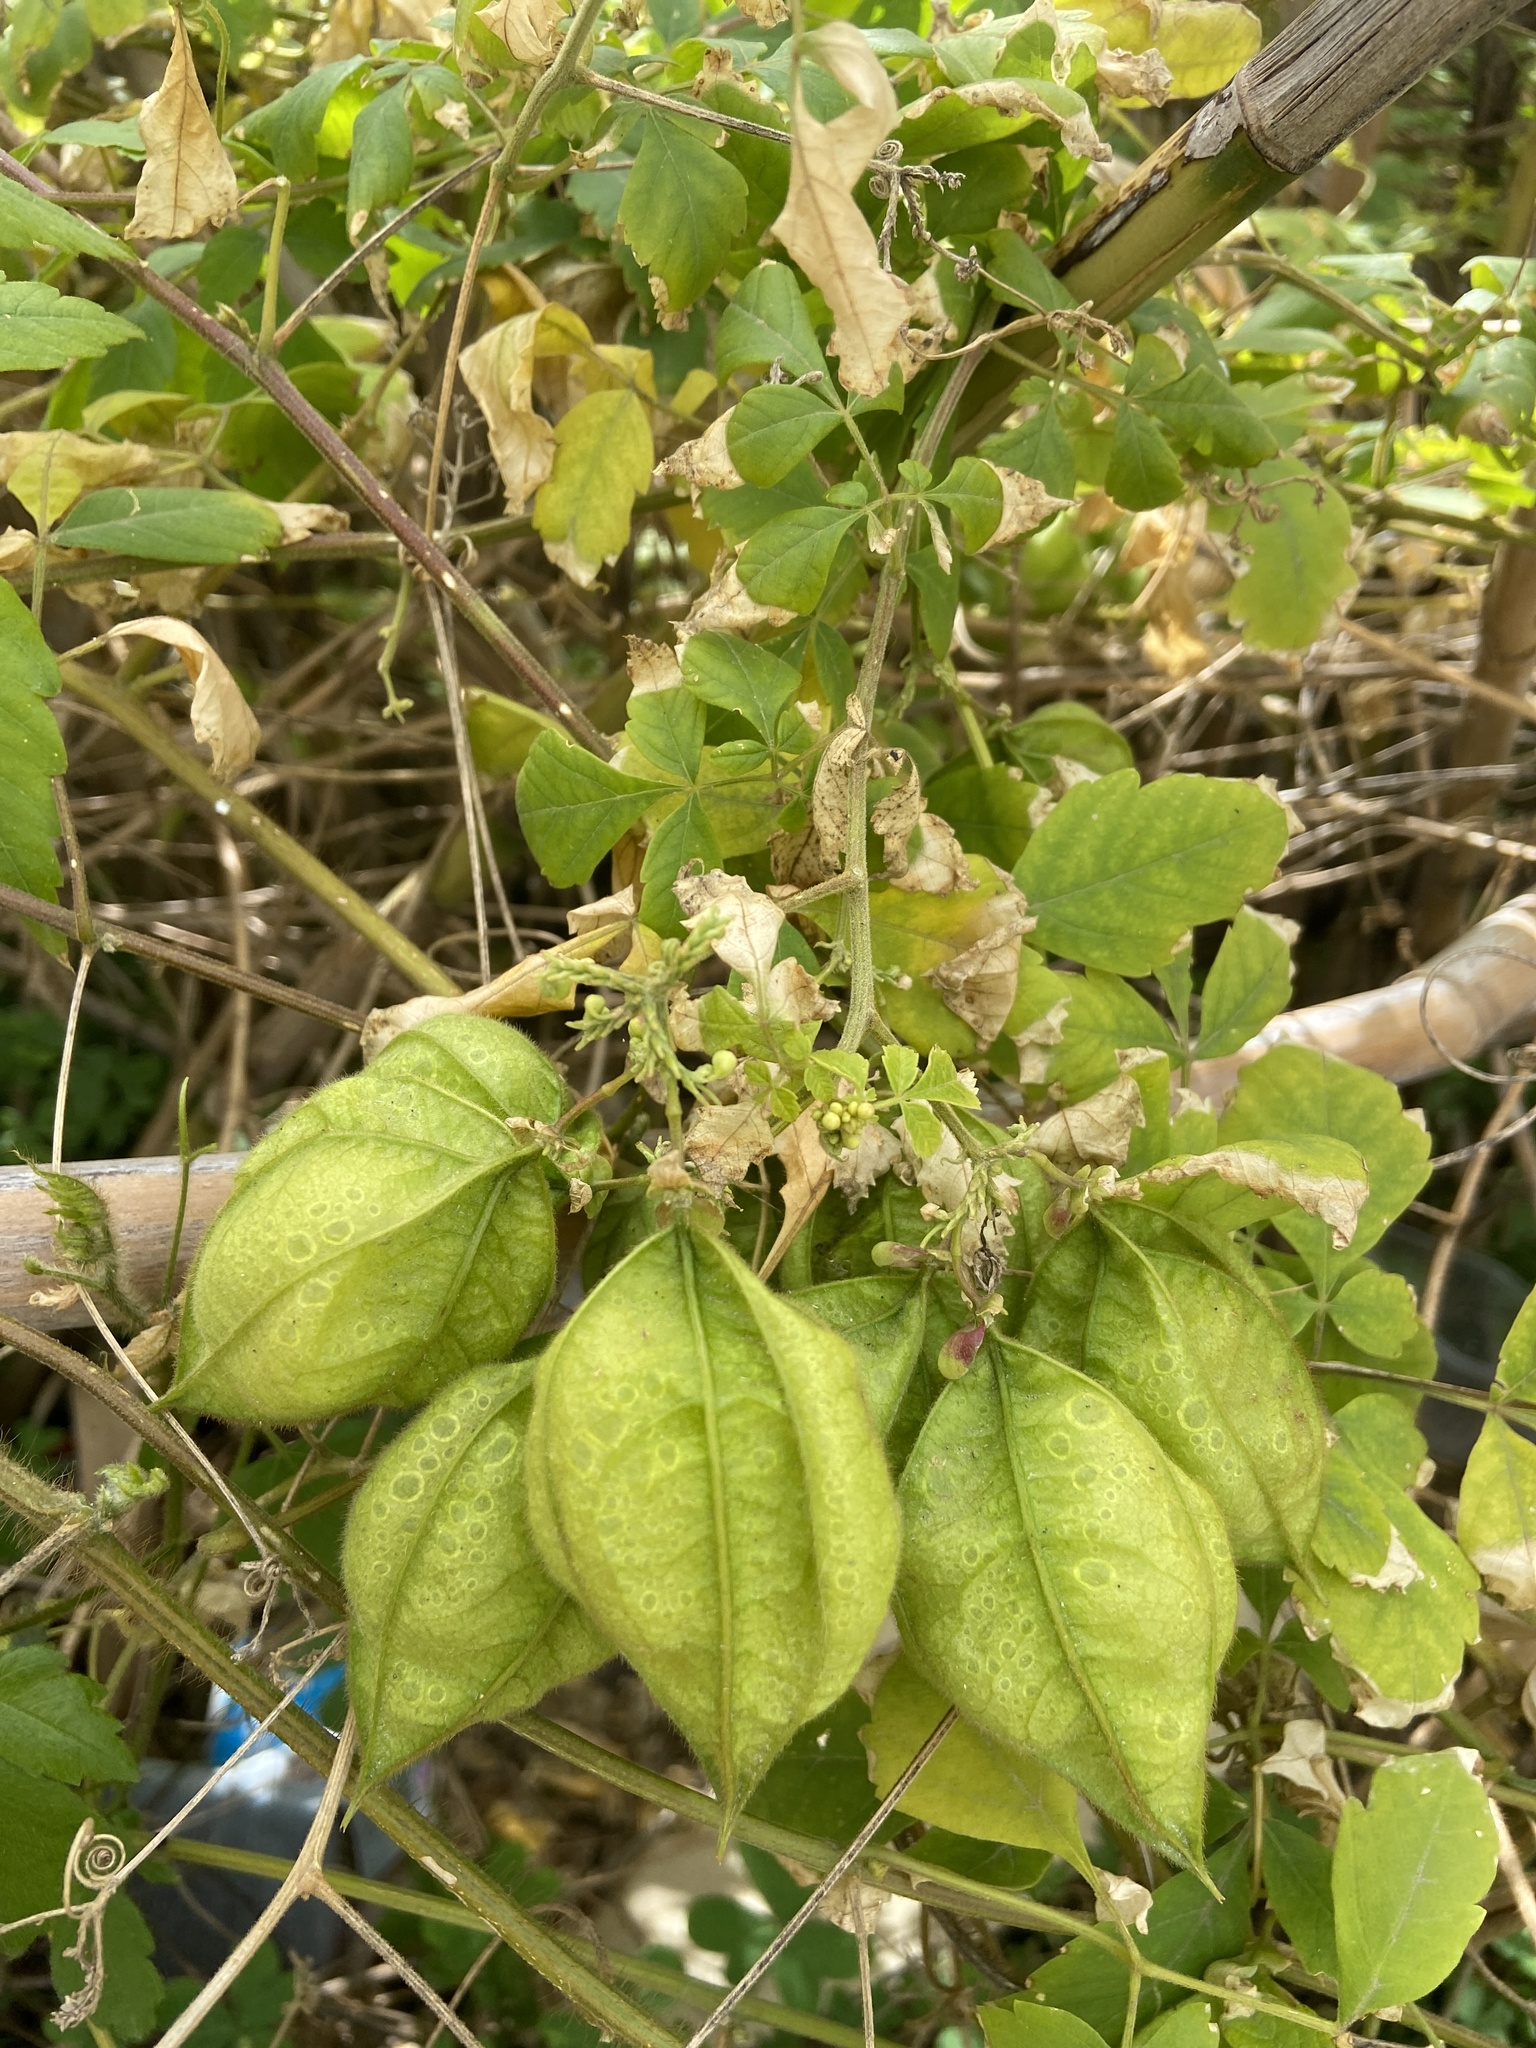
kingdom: Plantae
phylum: Tracheophyta
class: Magnoliopsida
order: Sapindales
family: Sapindaceae
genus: Cardiospermum
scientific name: Cardiospermum grandiflorum
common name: Balloon vine
